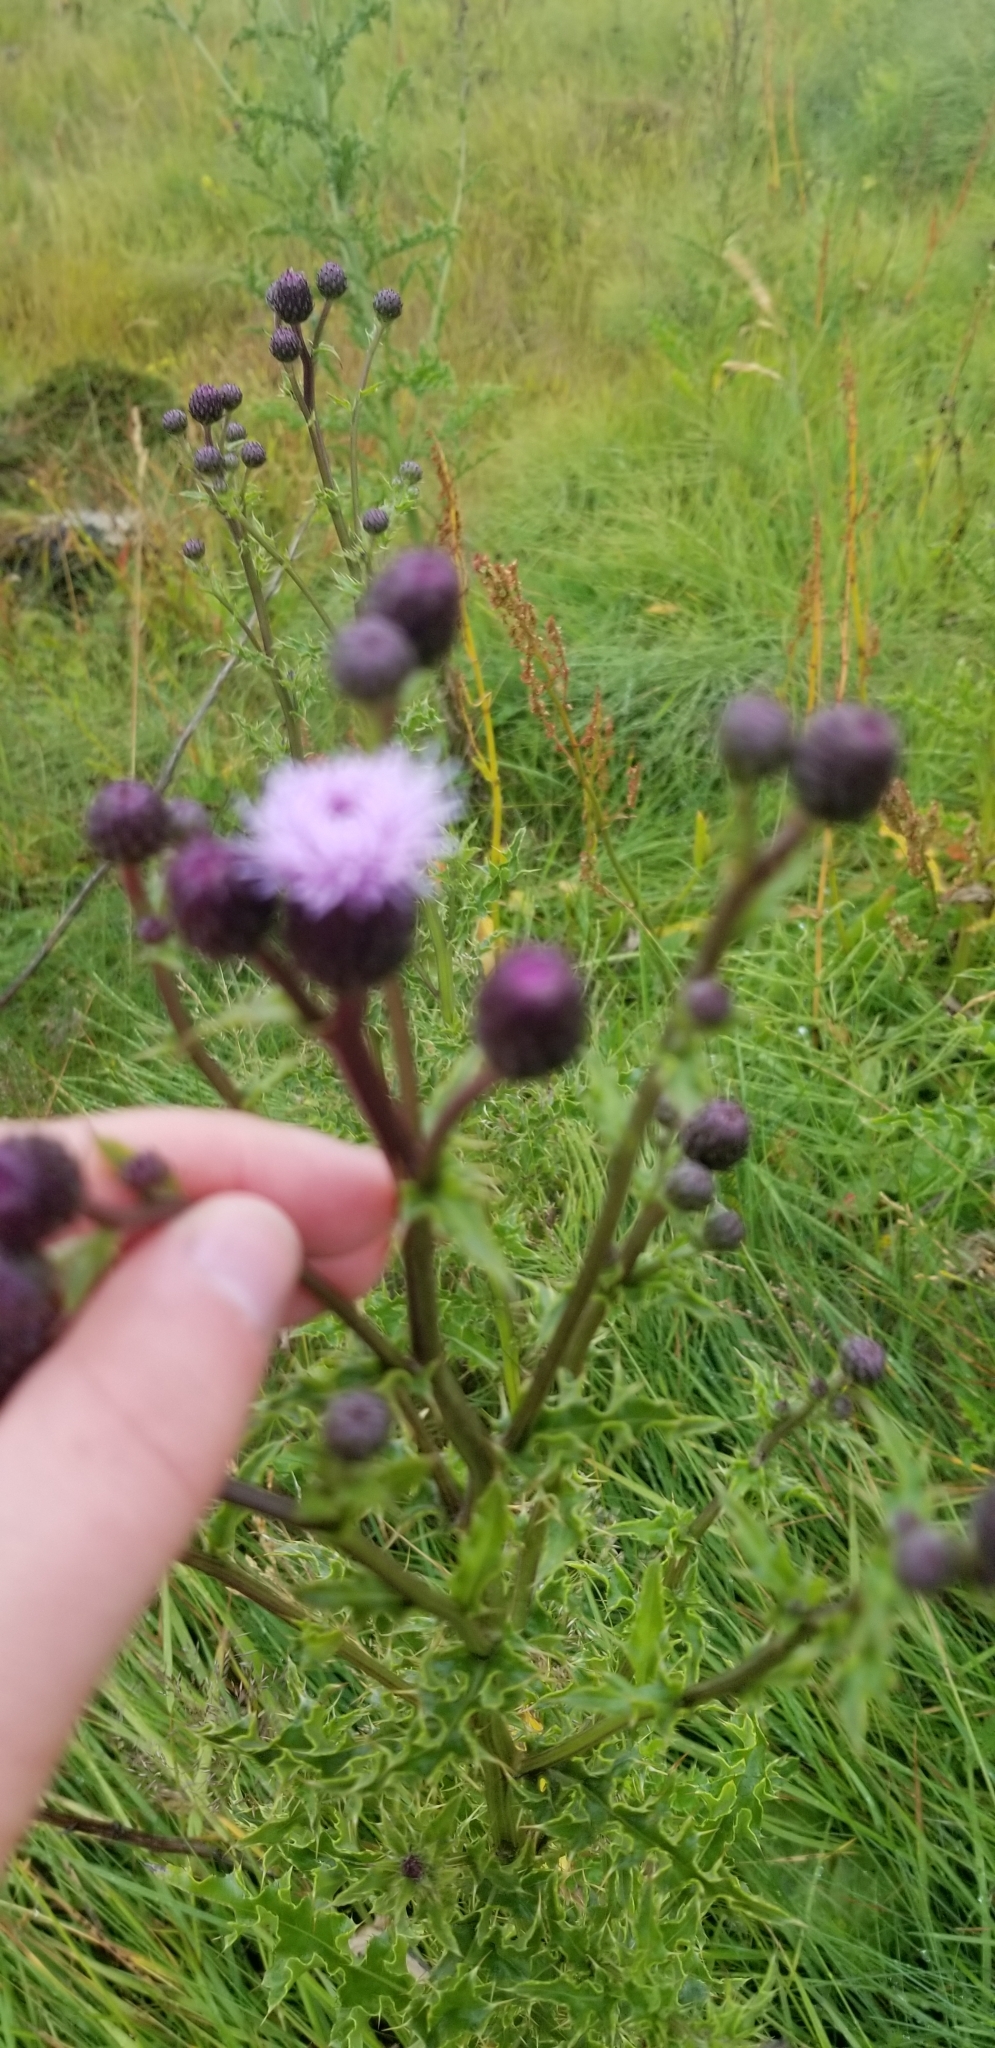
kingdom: Plantae
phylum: Tracheophyta
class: Magnoliopsida
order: Asterales
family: Asteraceae
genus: Cirsium
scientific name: Cirsium arvense
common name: Creeping thistle
